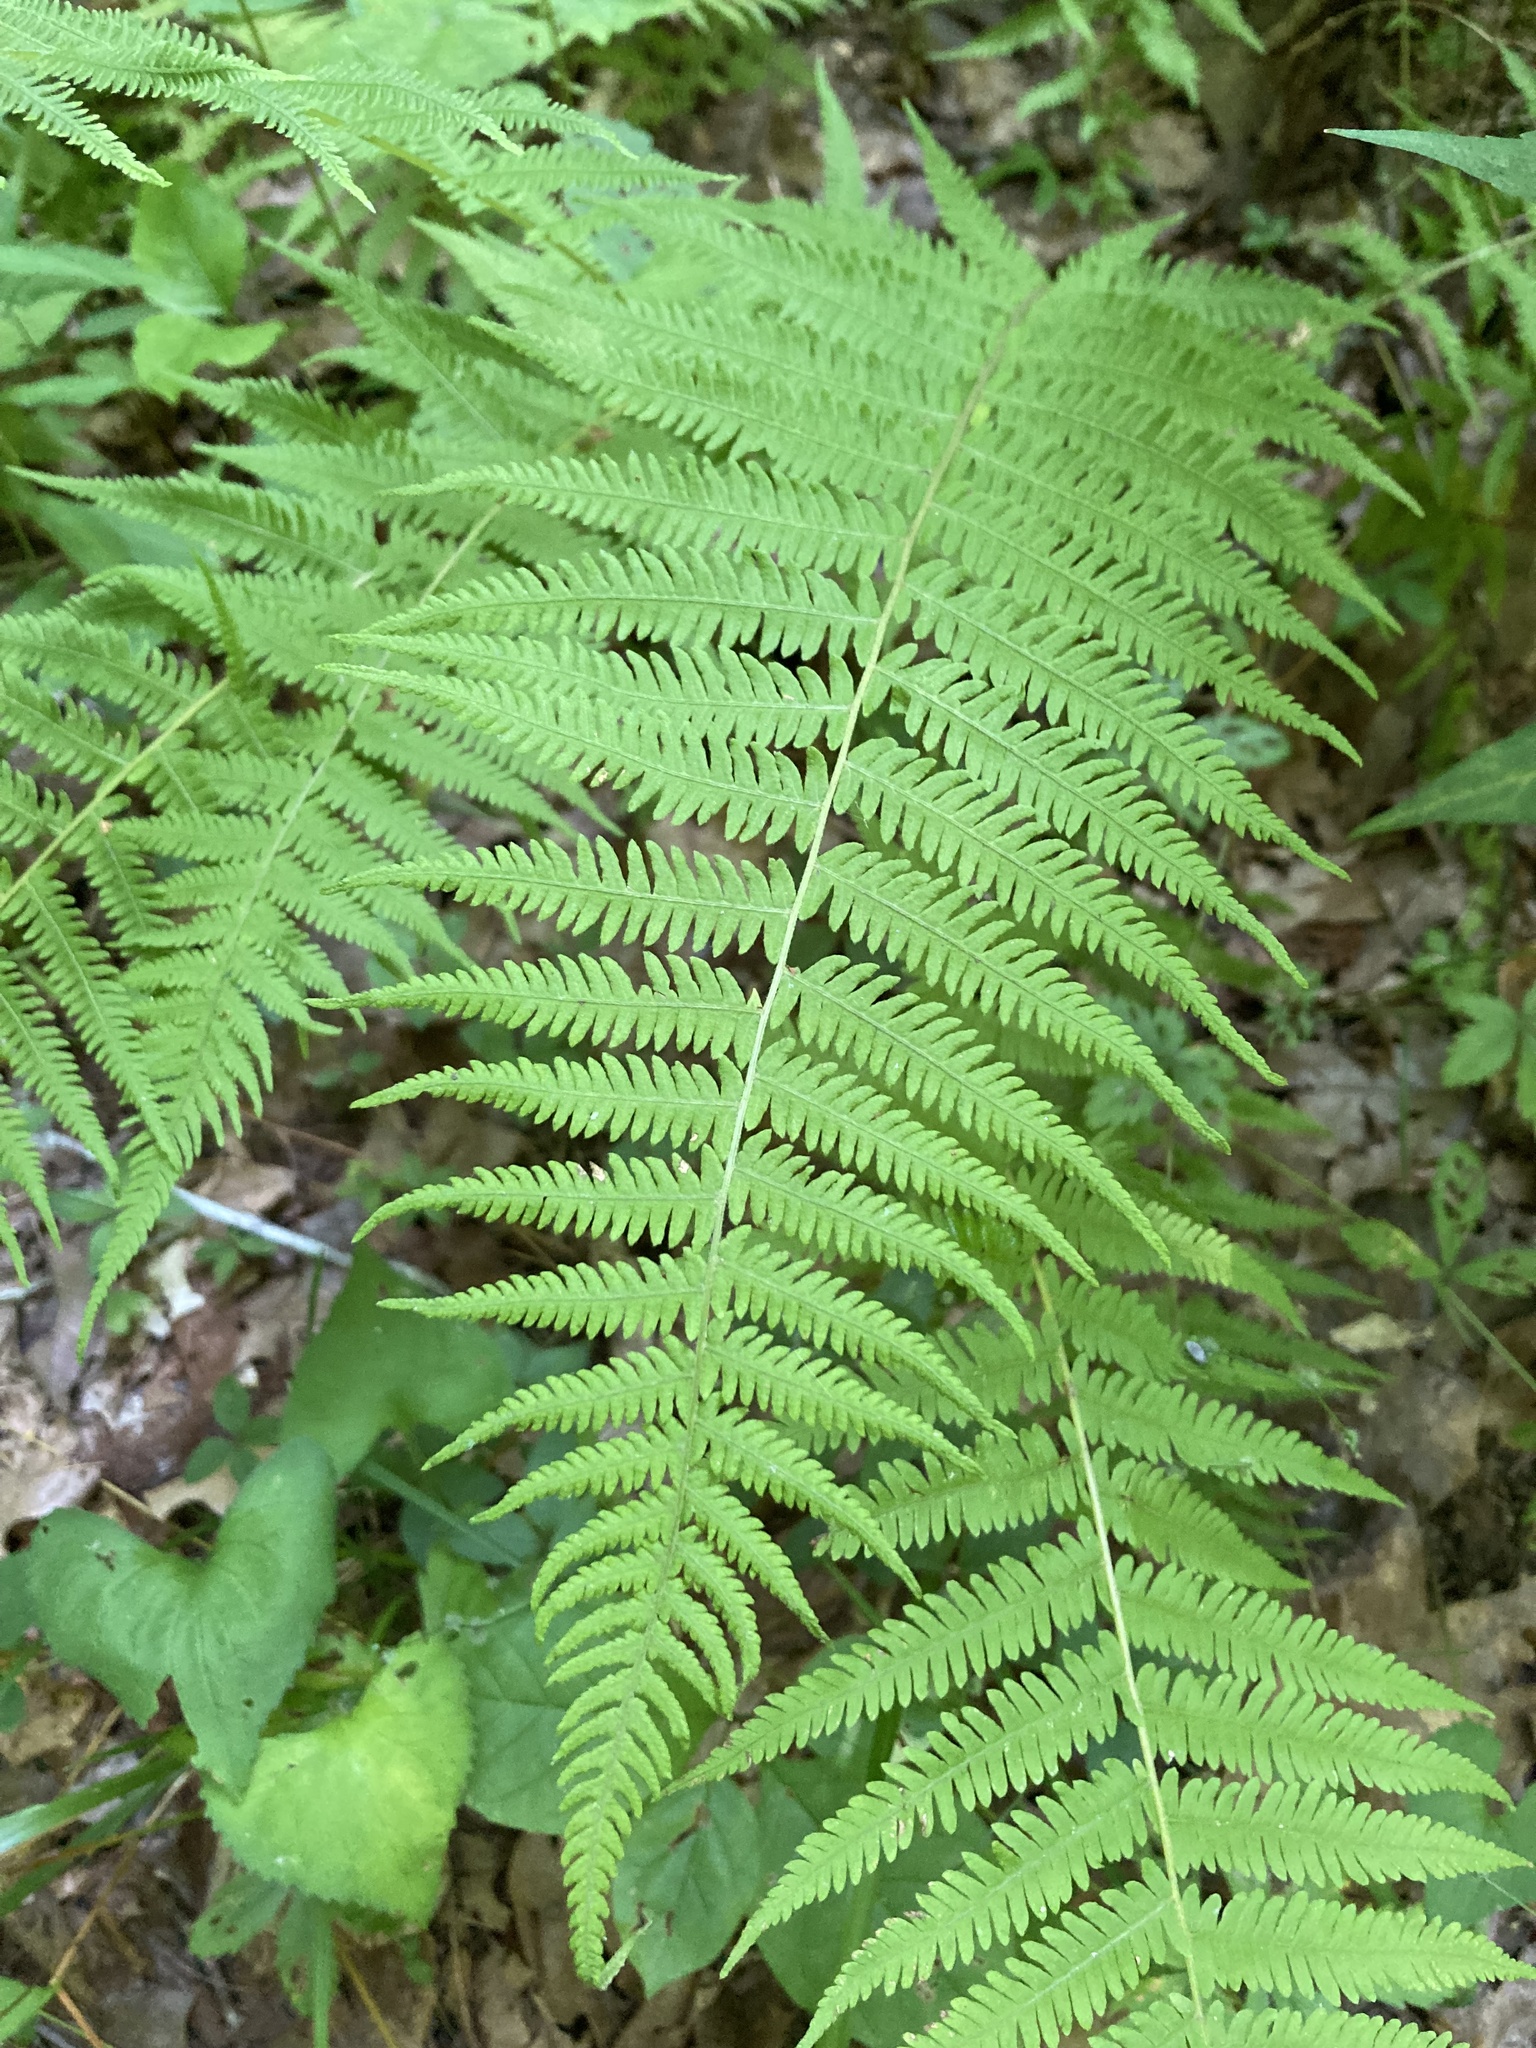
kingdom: Plantae
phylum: Tracheophyta
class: Polypodiopsida
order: Polypodiales
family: Thelypteridaceae
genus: Amauropelta
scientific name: Amauropelta noveboracensis
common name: New york fern
